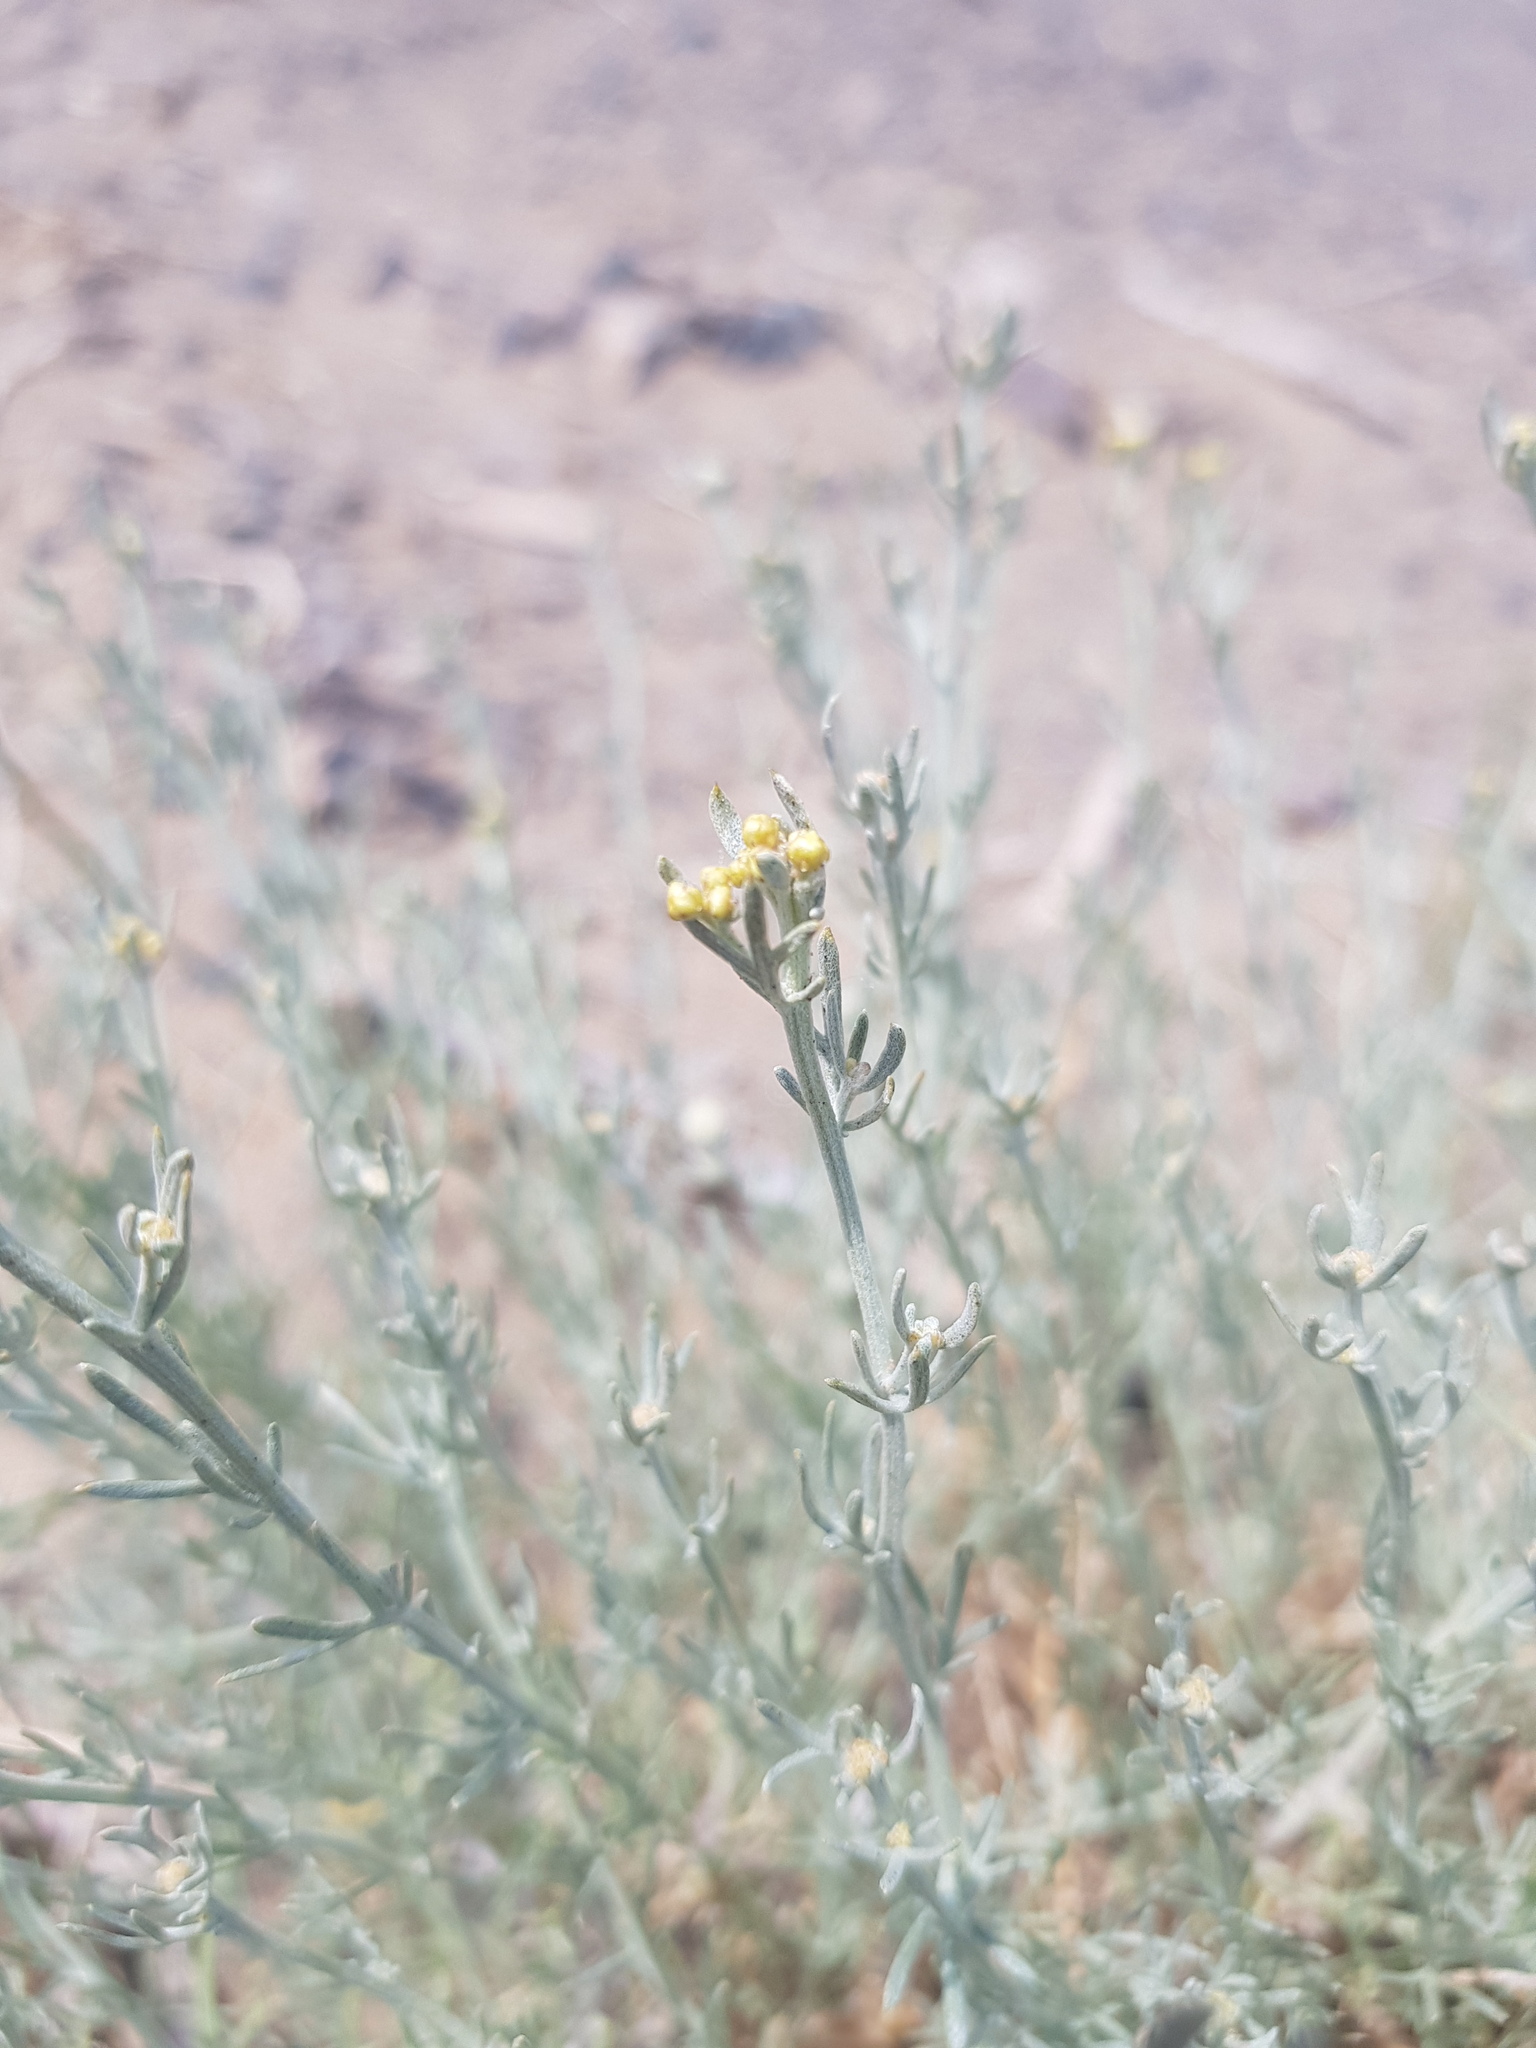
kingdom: Plantae
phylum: Tracheophyta
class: Magnoliopsida
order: Asterales
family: Asteraceae
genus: Ajania
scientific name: Ajania achilleoides
